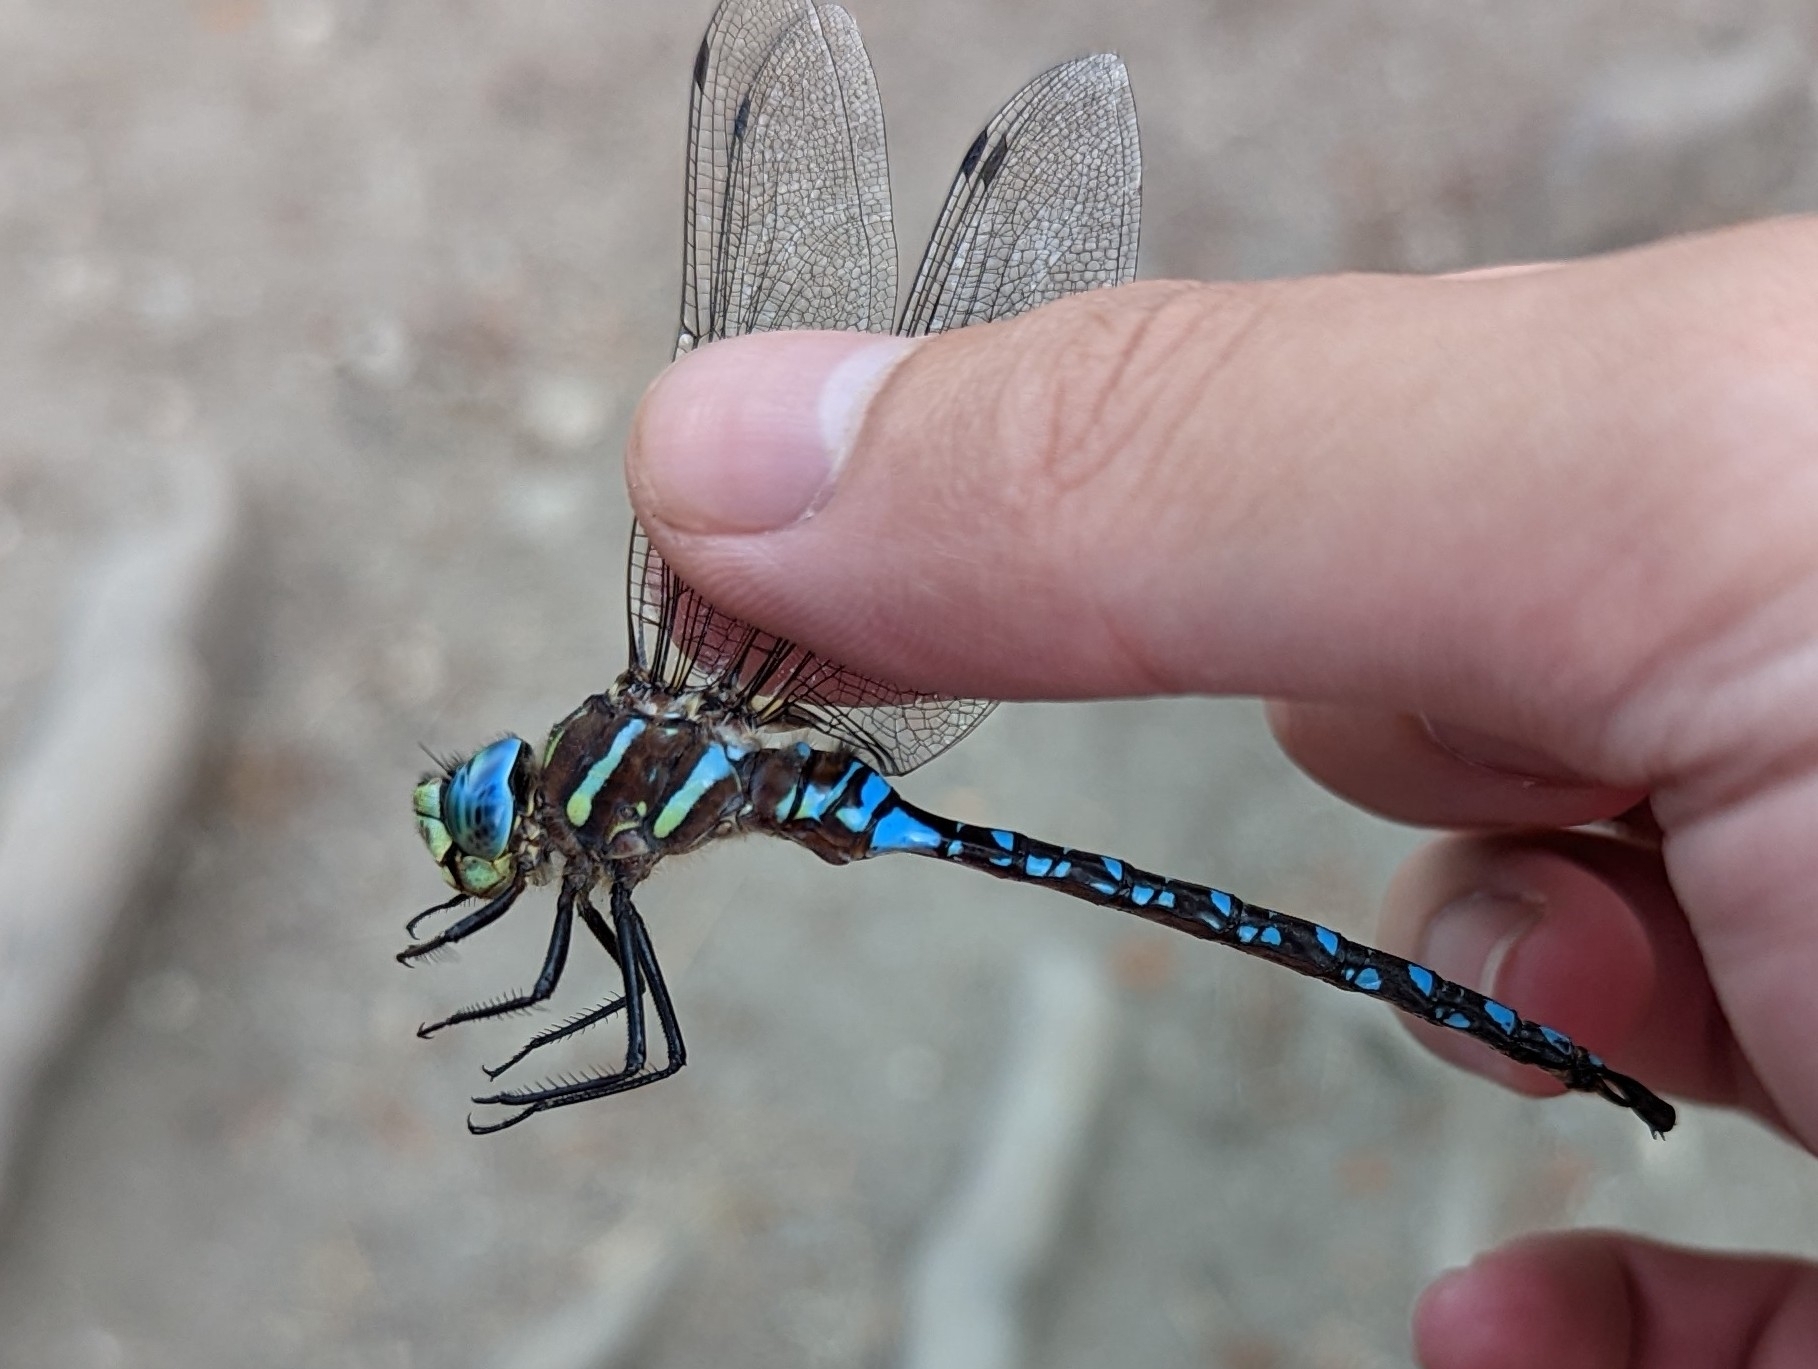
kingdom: Animalia
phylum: Arthropoda
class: Insecta
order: Odonata
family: Aeshnidae
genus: Aeshna
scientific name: Aeshna palmata
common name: Paddle-tailed darner
